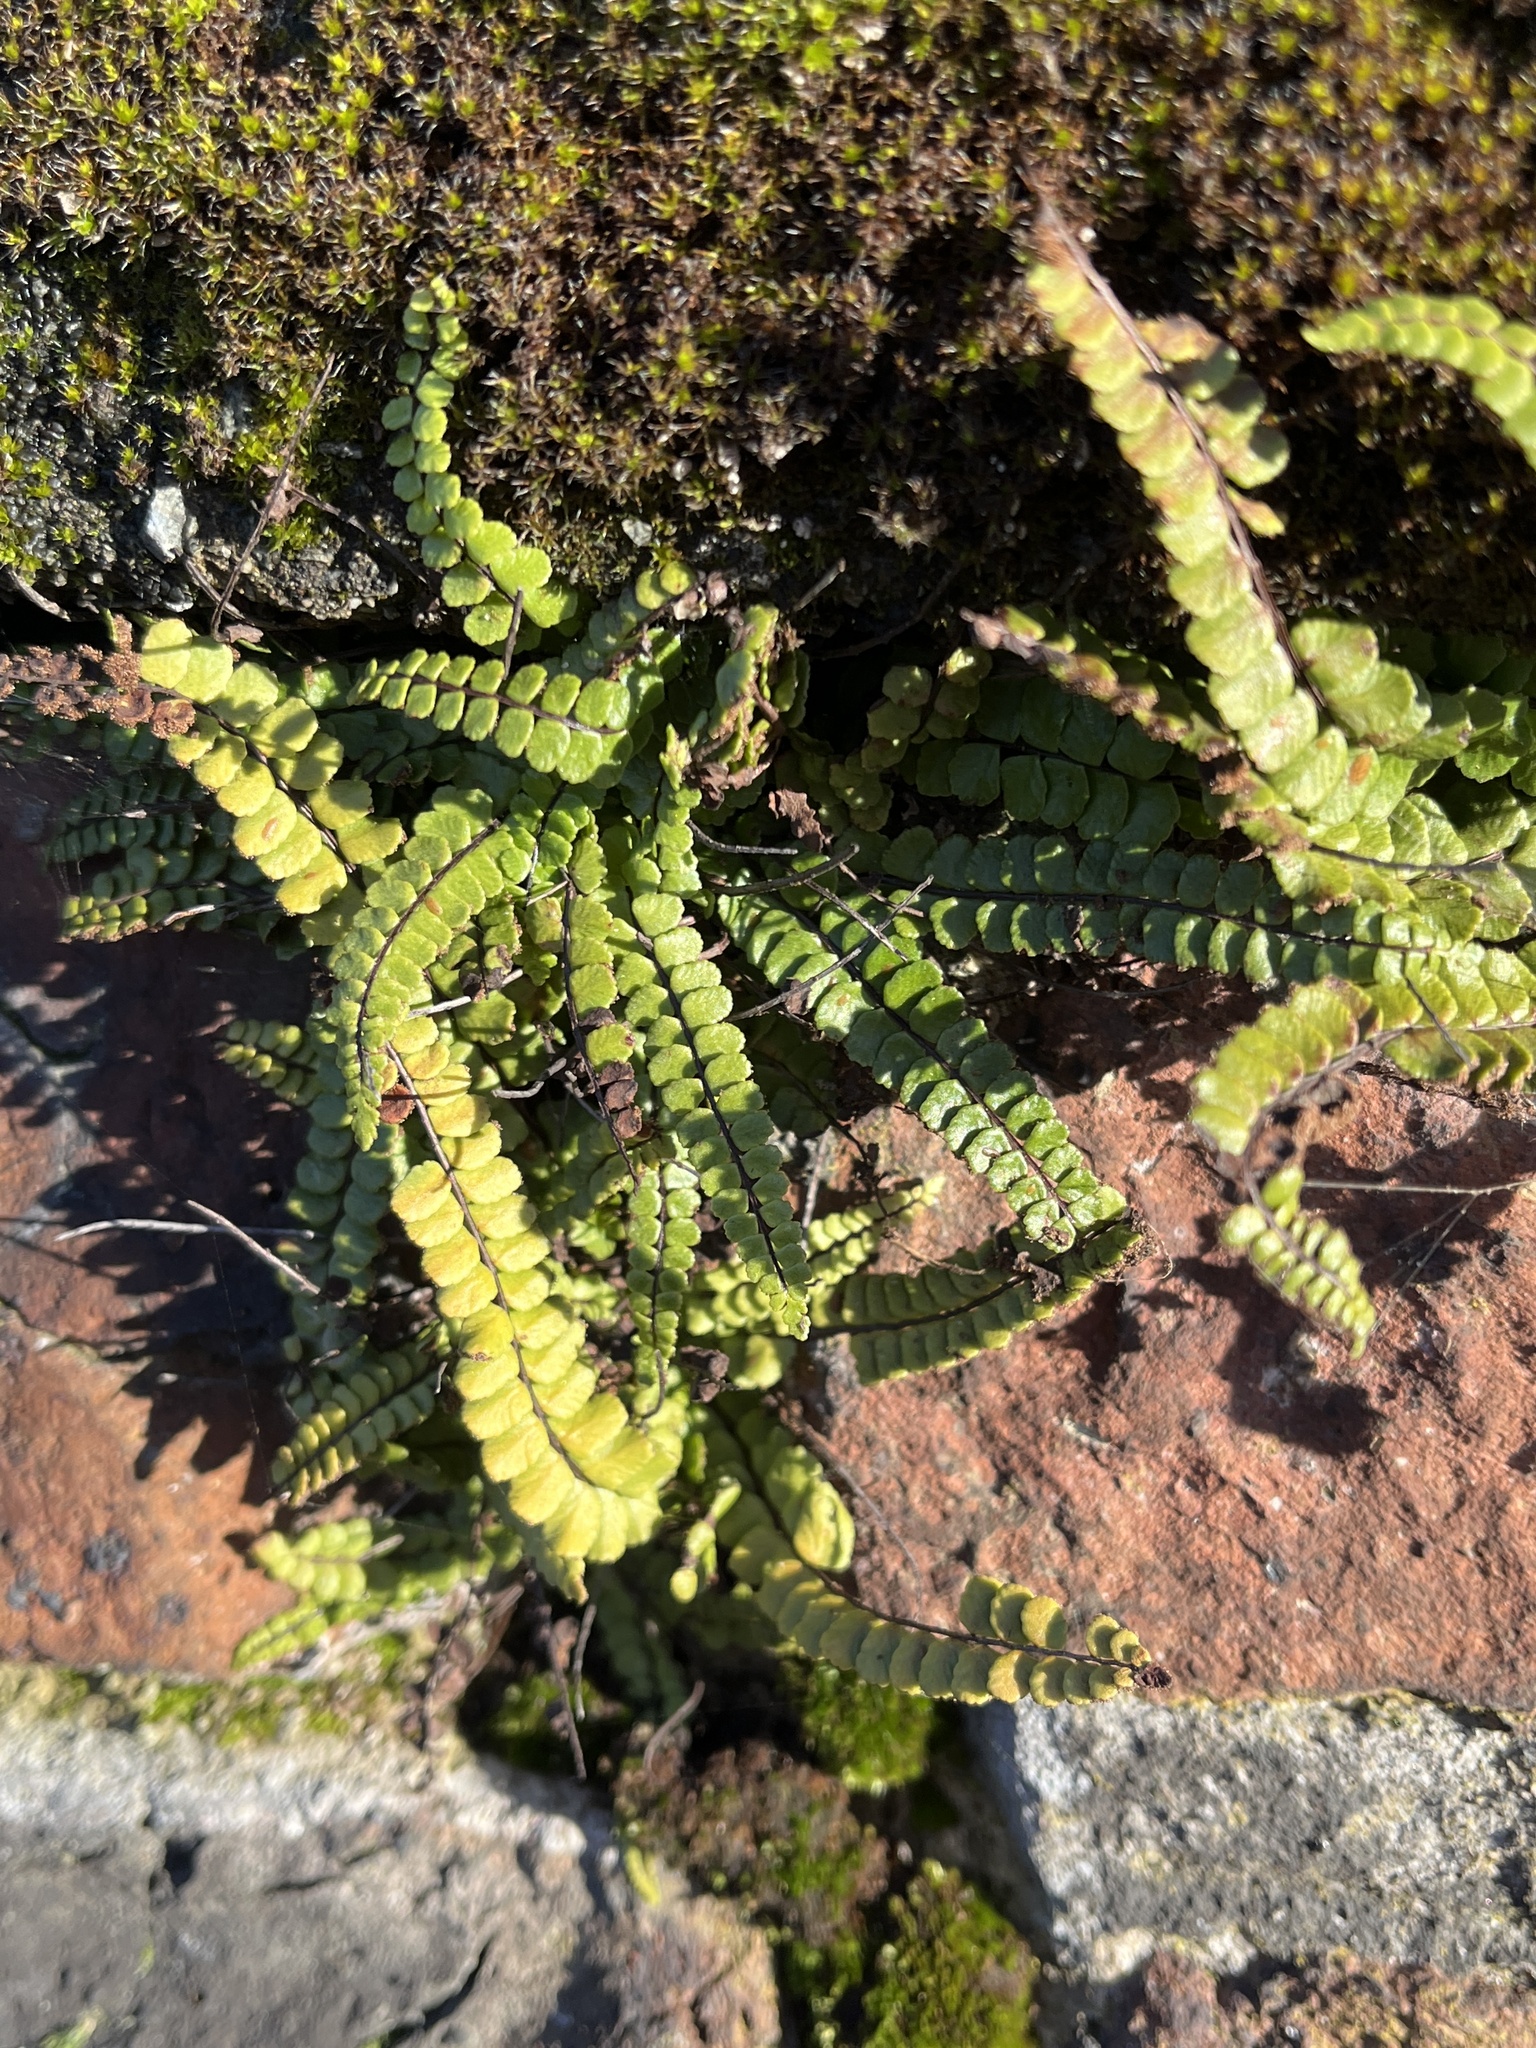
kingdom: Plantae
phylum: Tracheophyta
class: Polypodiopsida
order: Polypodiales
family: Aspleniaceae
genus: Asplenium
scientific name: Asplenium trichomanes
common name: Maidenhair spleenwort
